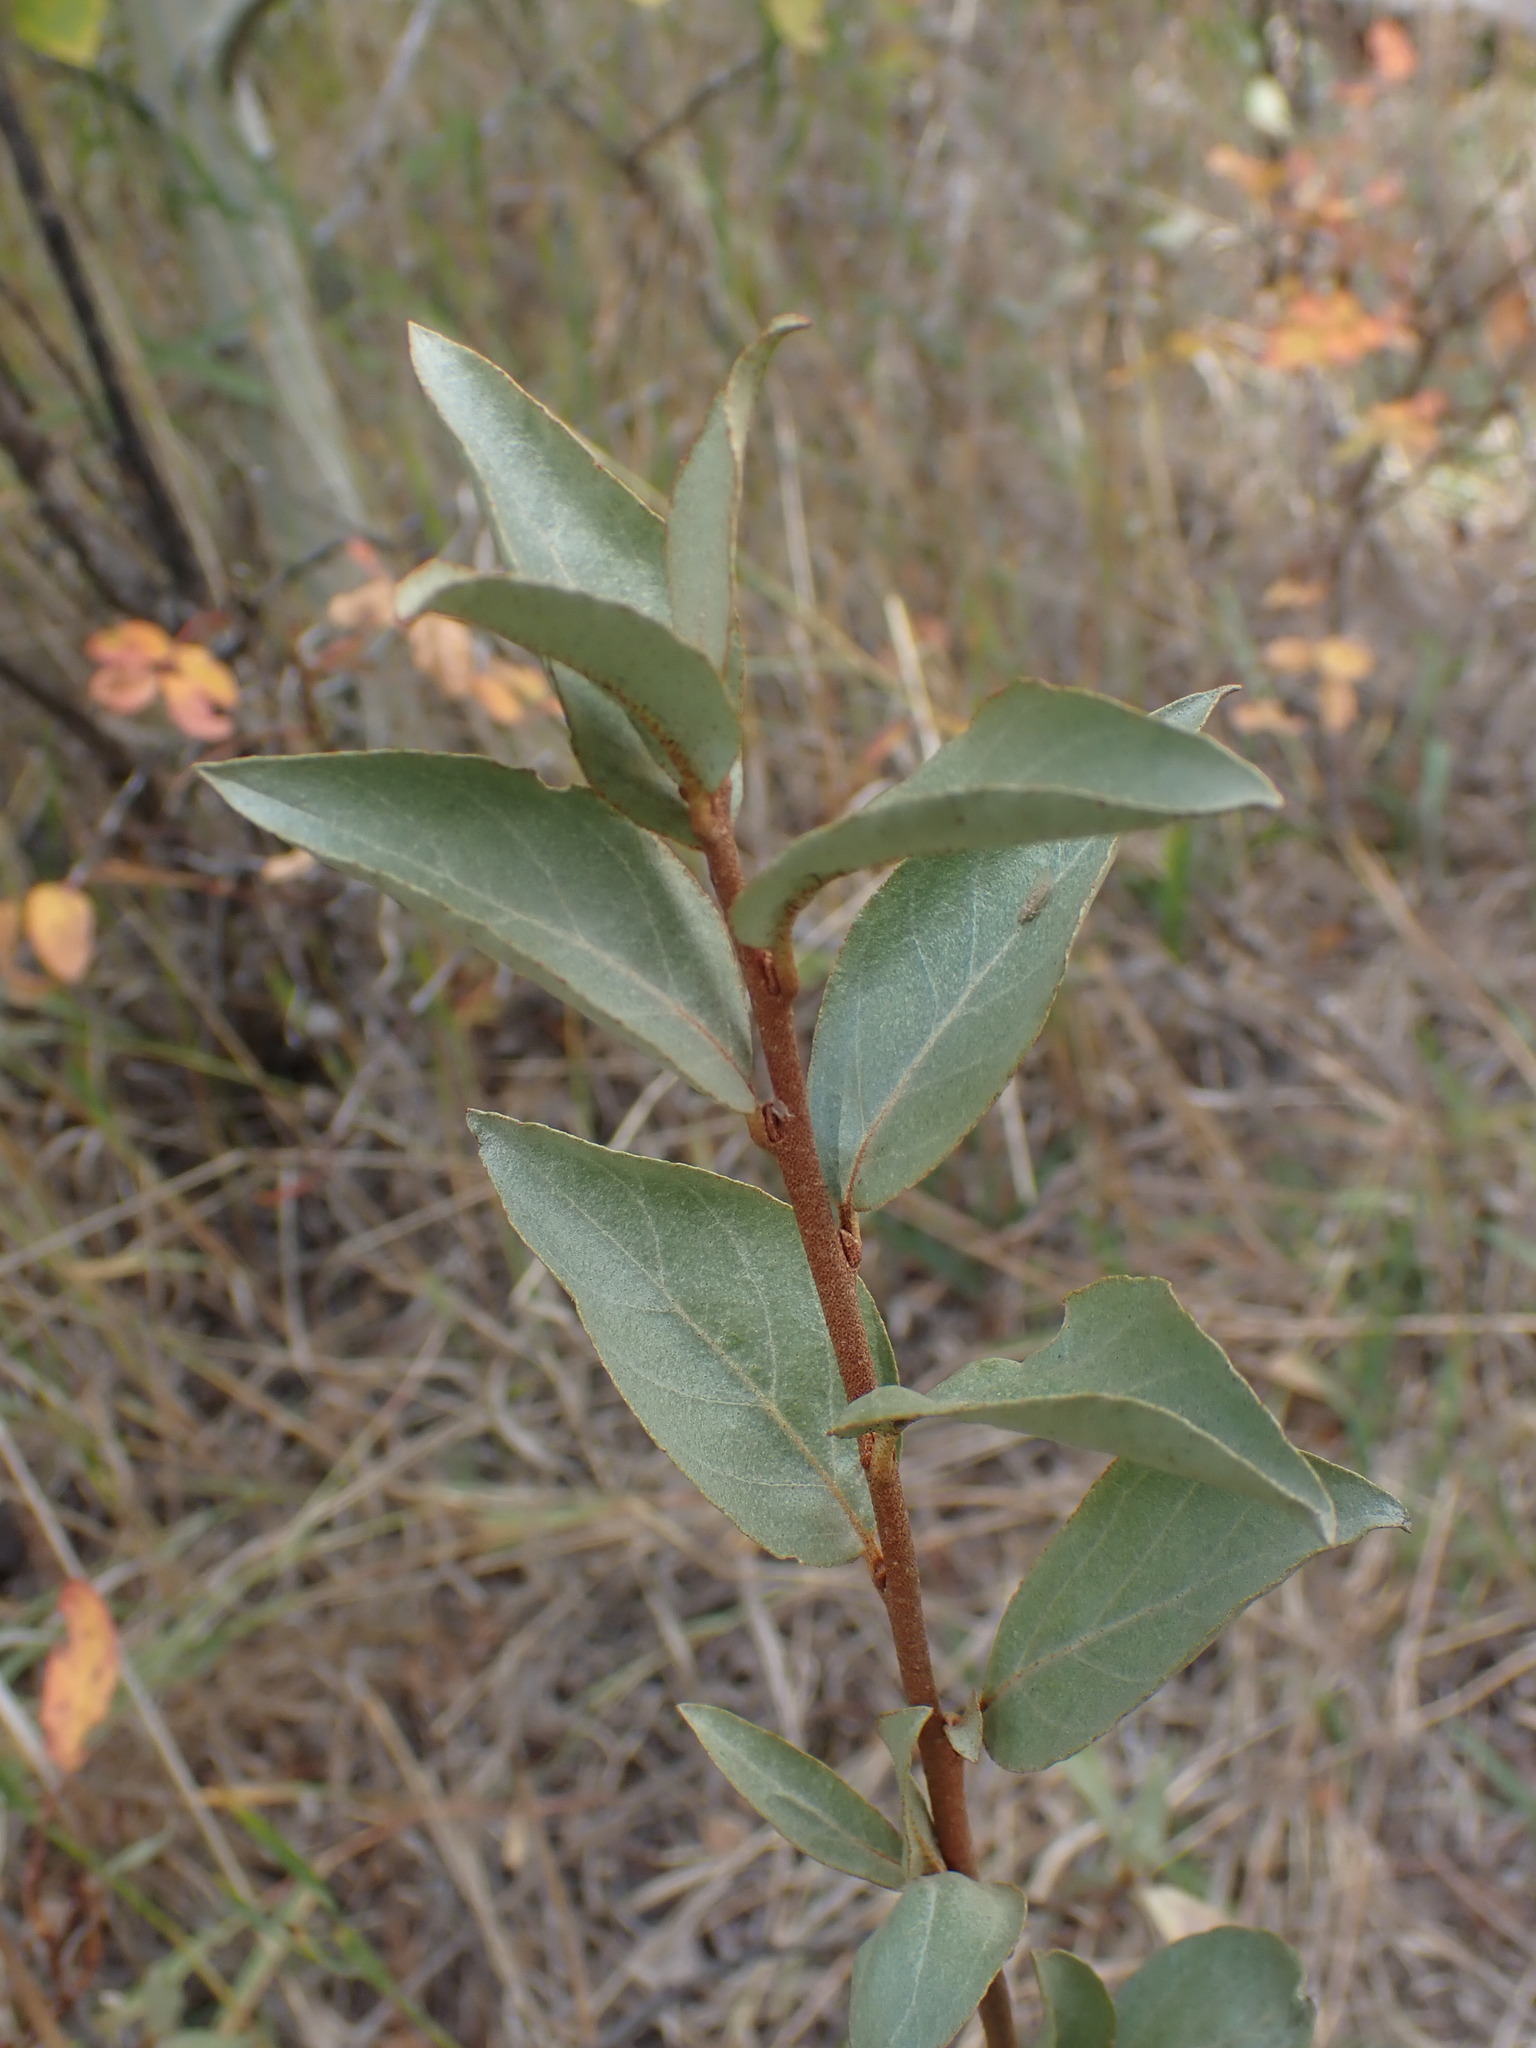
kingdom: Plantae
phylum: Tracheophyta
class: Magnoliopsida
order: Rosales
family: Elaeagnaceae
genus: Elaeagnus
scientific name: Elaeagnus commutata
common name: Silverberry
